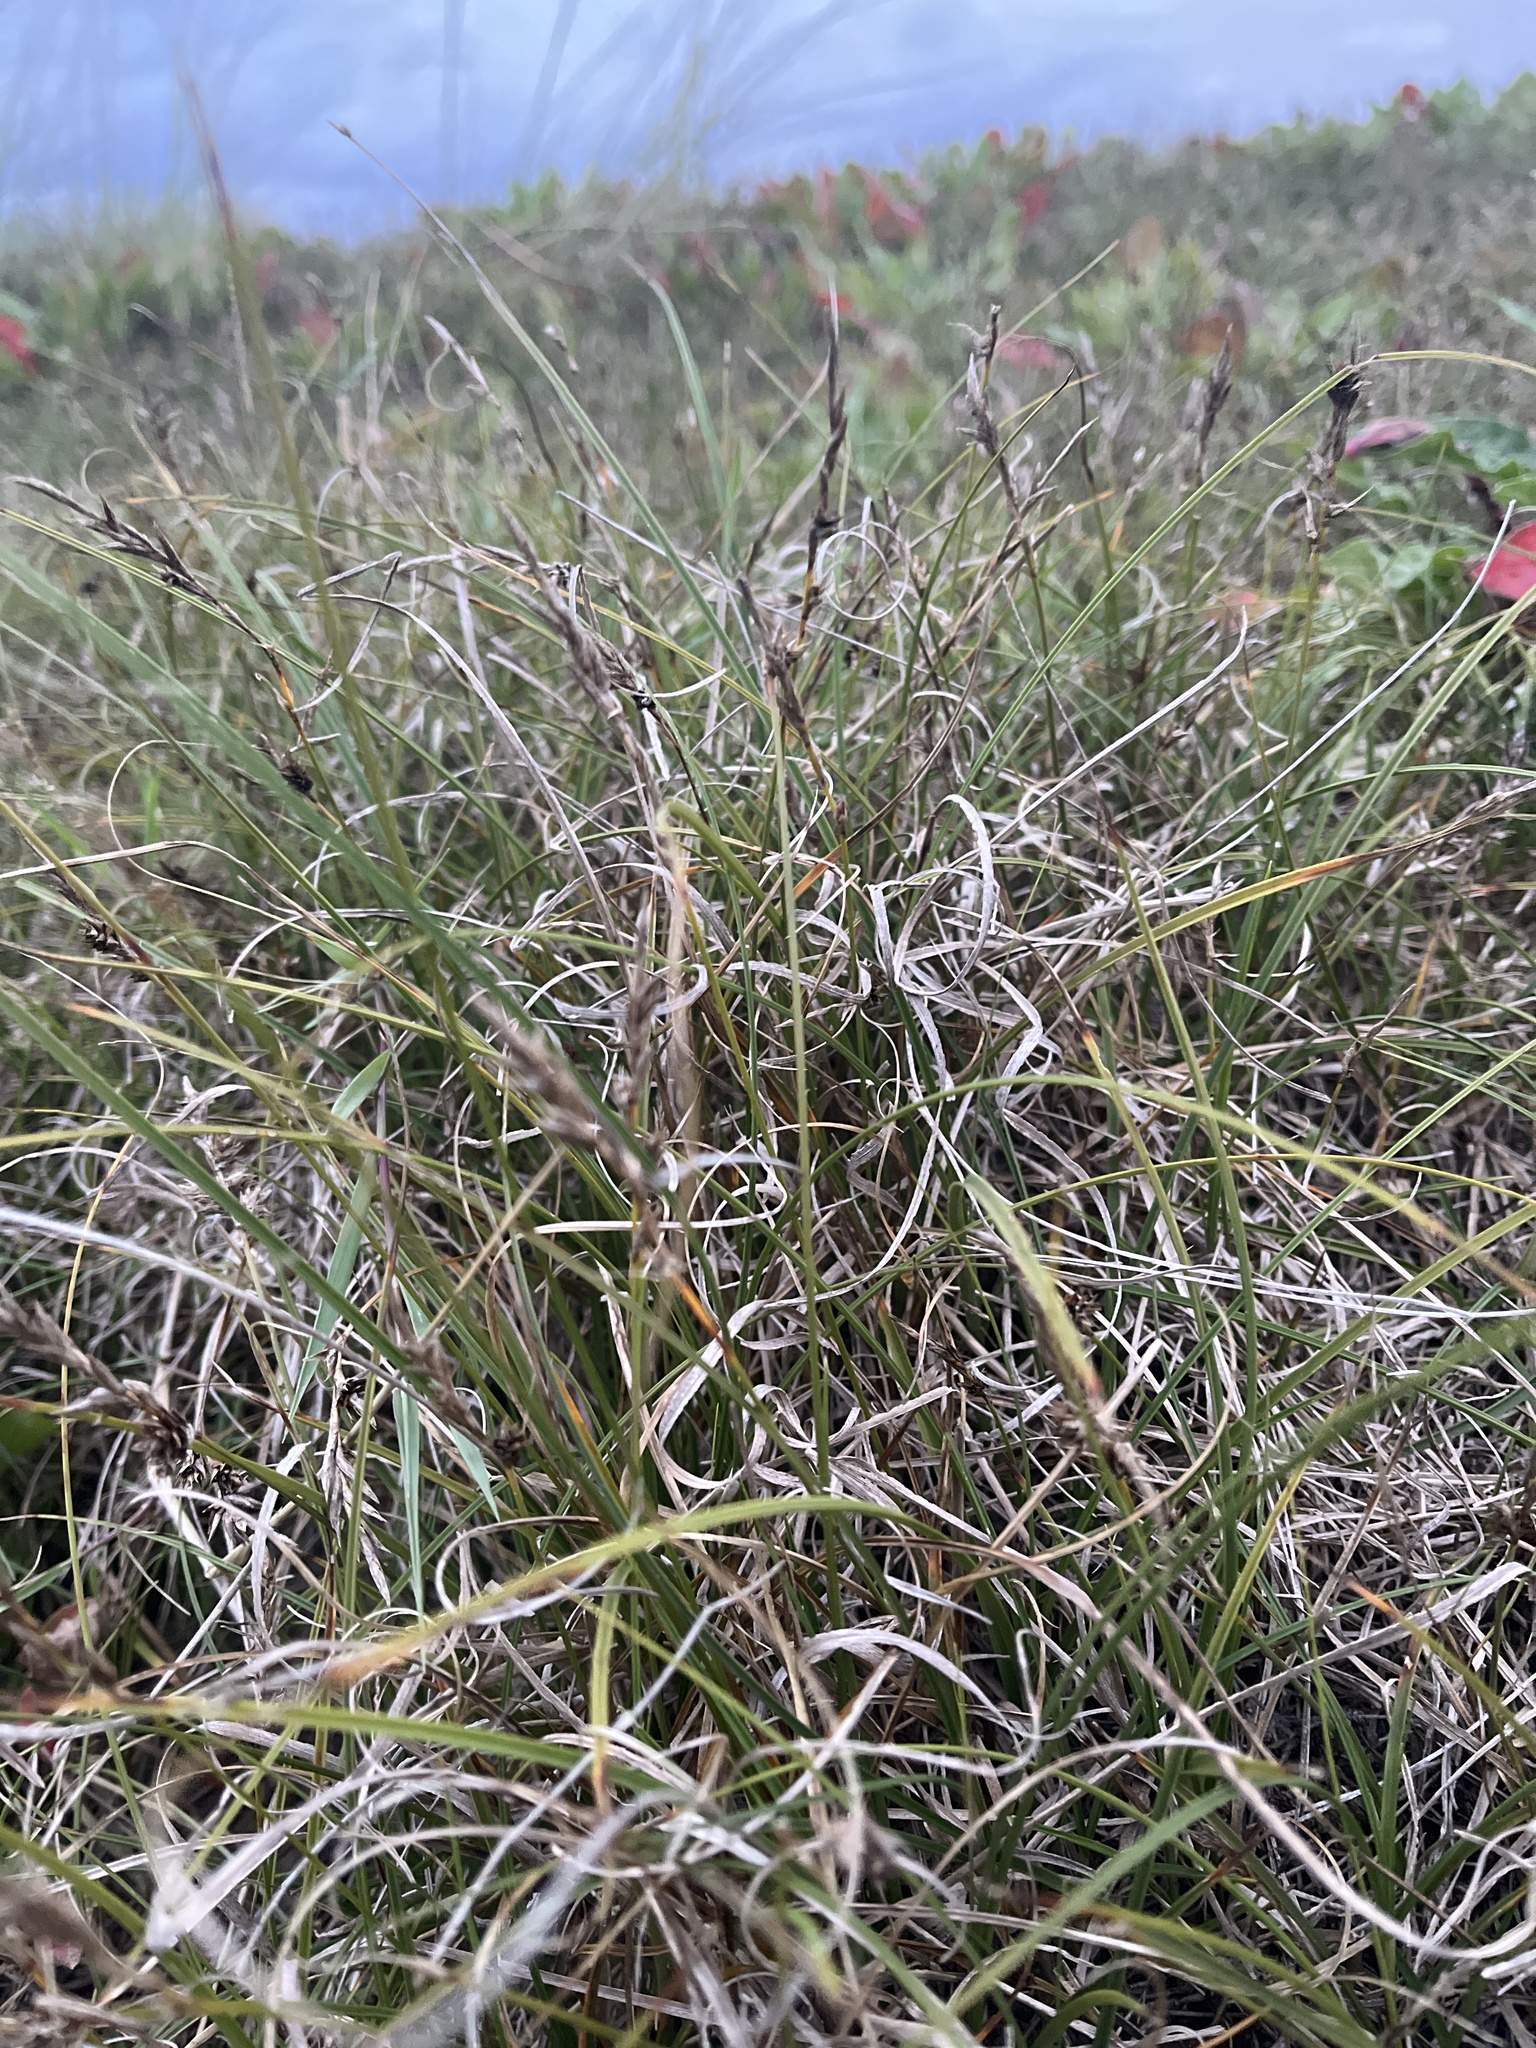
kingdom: Plantae
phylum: Tracheophyta
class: Liliopsida
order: Poales
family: Cyperaceae
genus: Carex
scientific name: Carex arenaria
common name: Sand sedge
